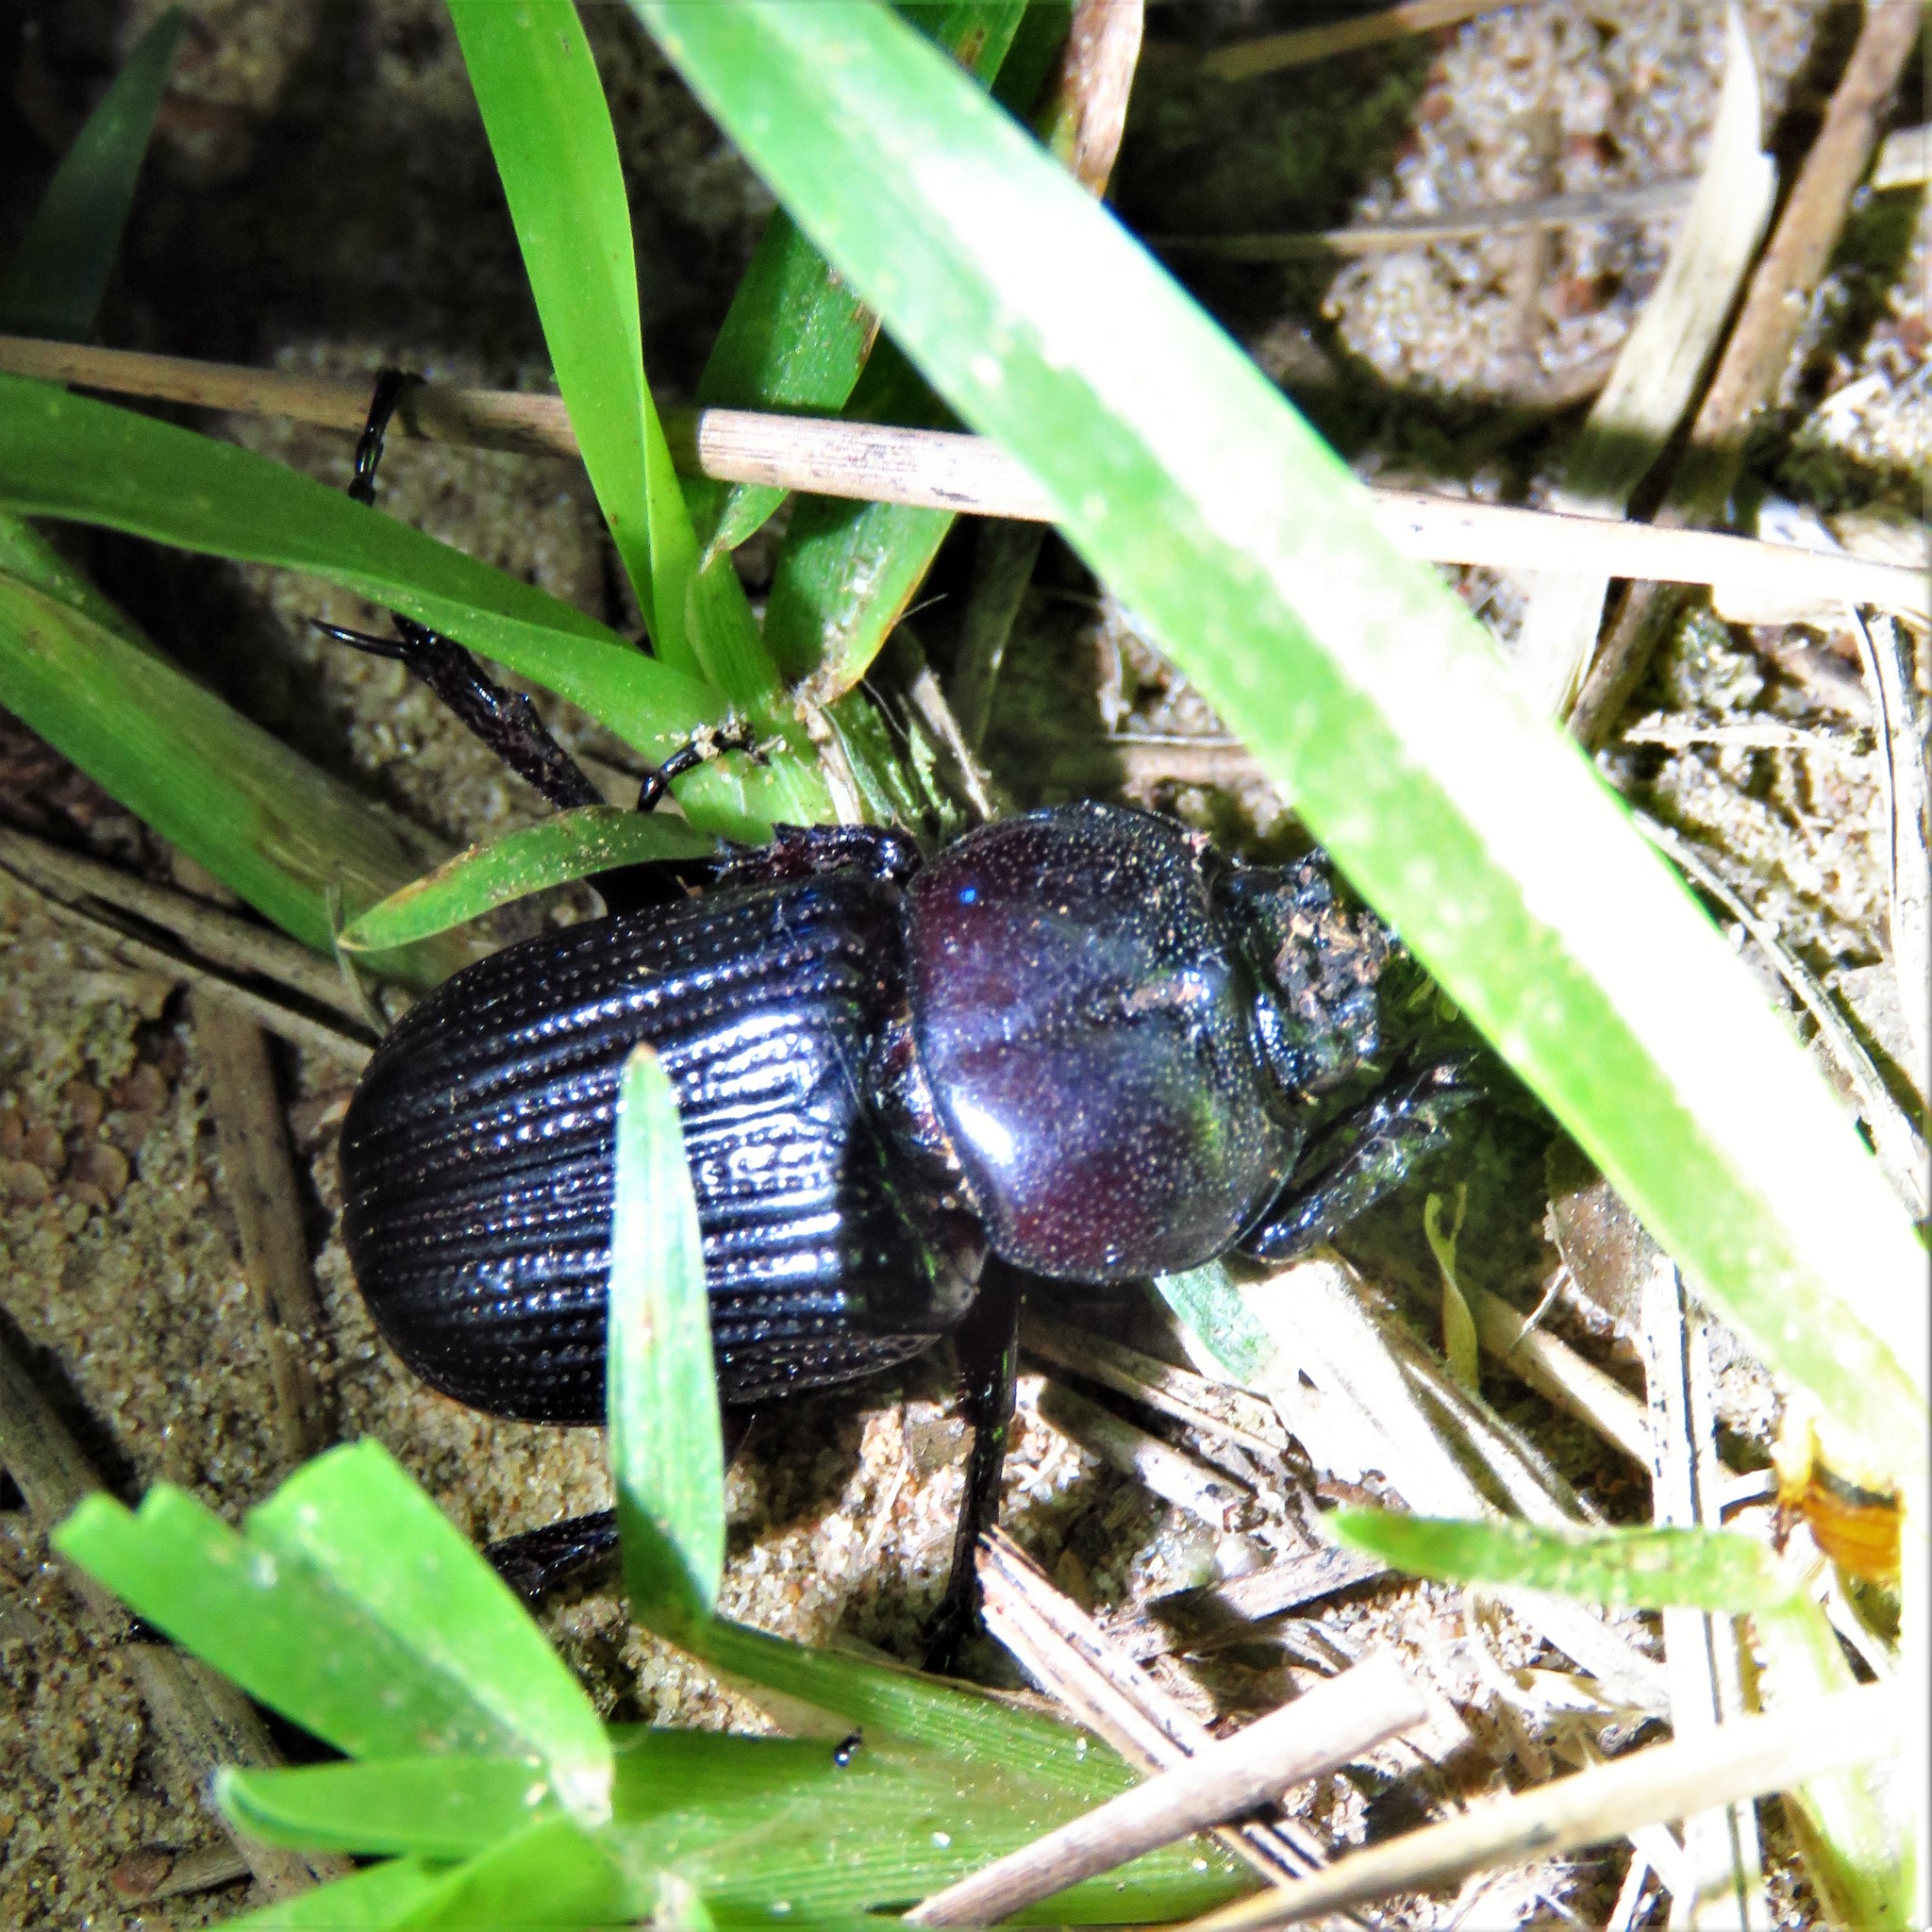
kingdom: Animalia
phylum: Arthropoda
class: Insecta
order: Coleoptera
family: Scarabaeidae
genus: Phileurus
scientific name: Phileurus valgus
